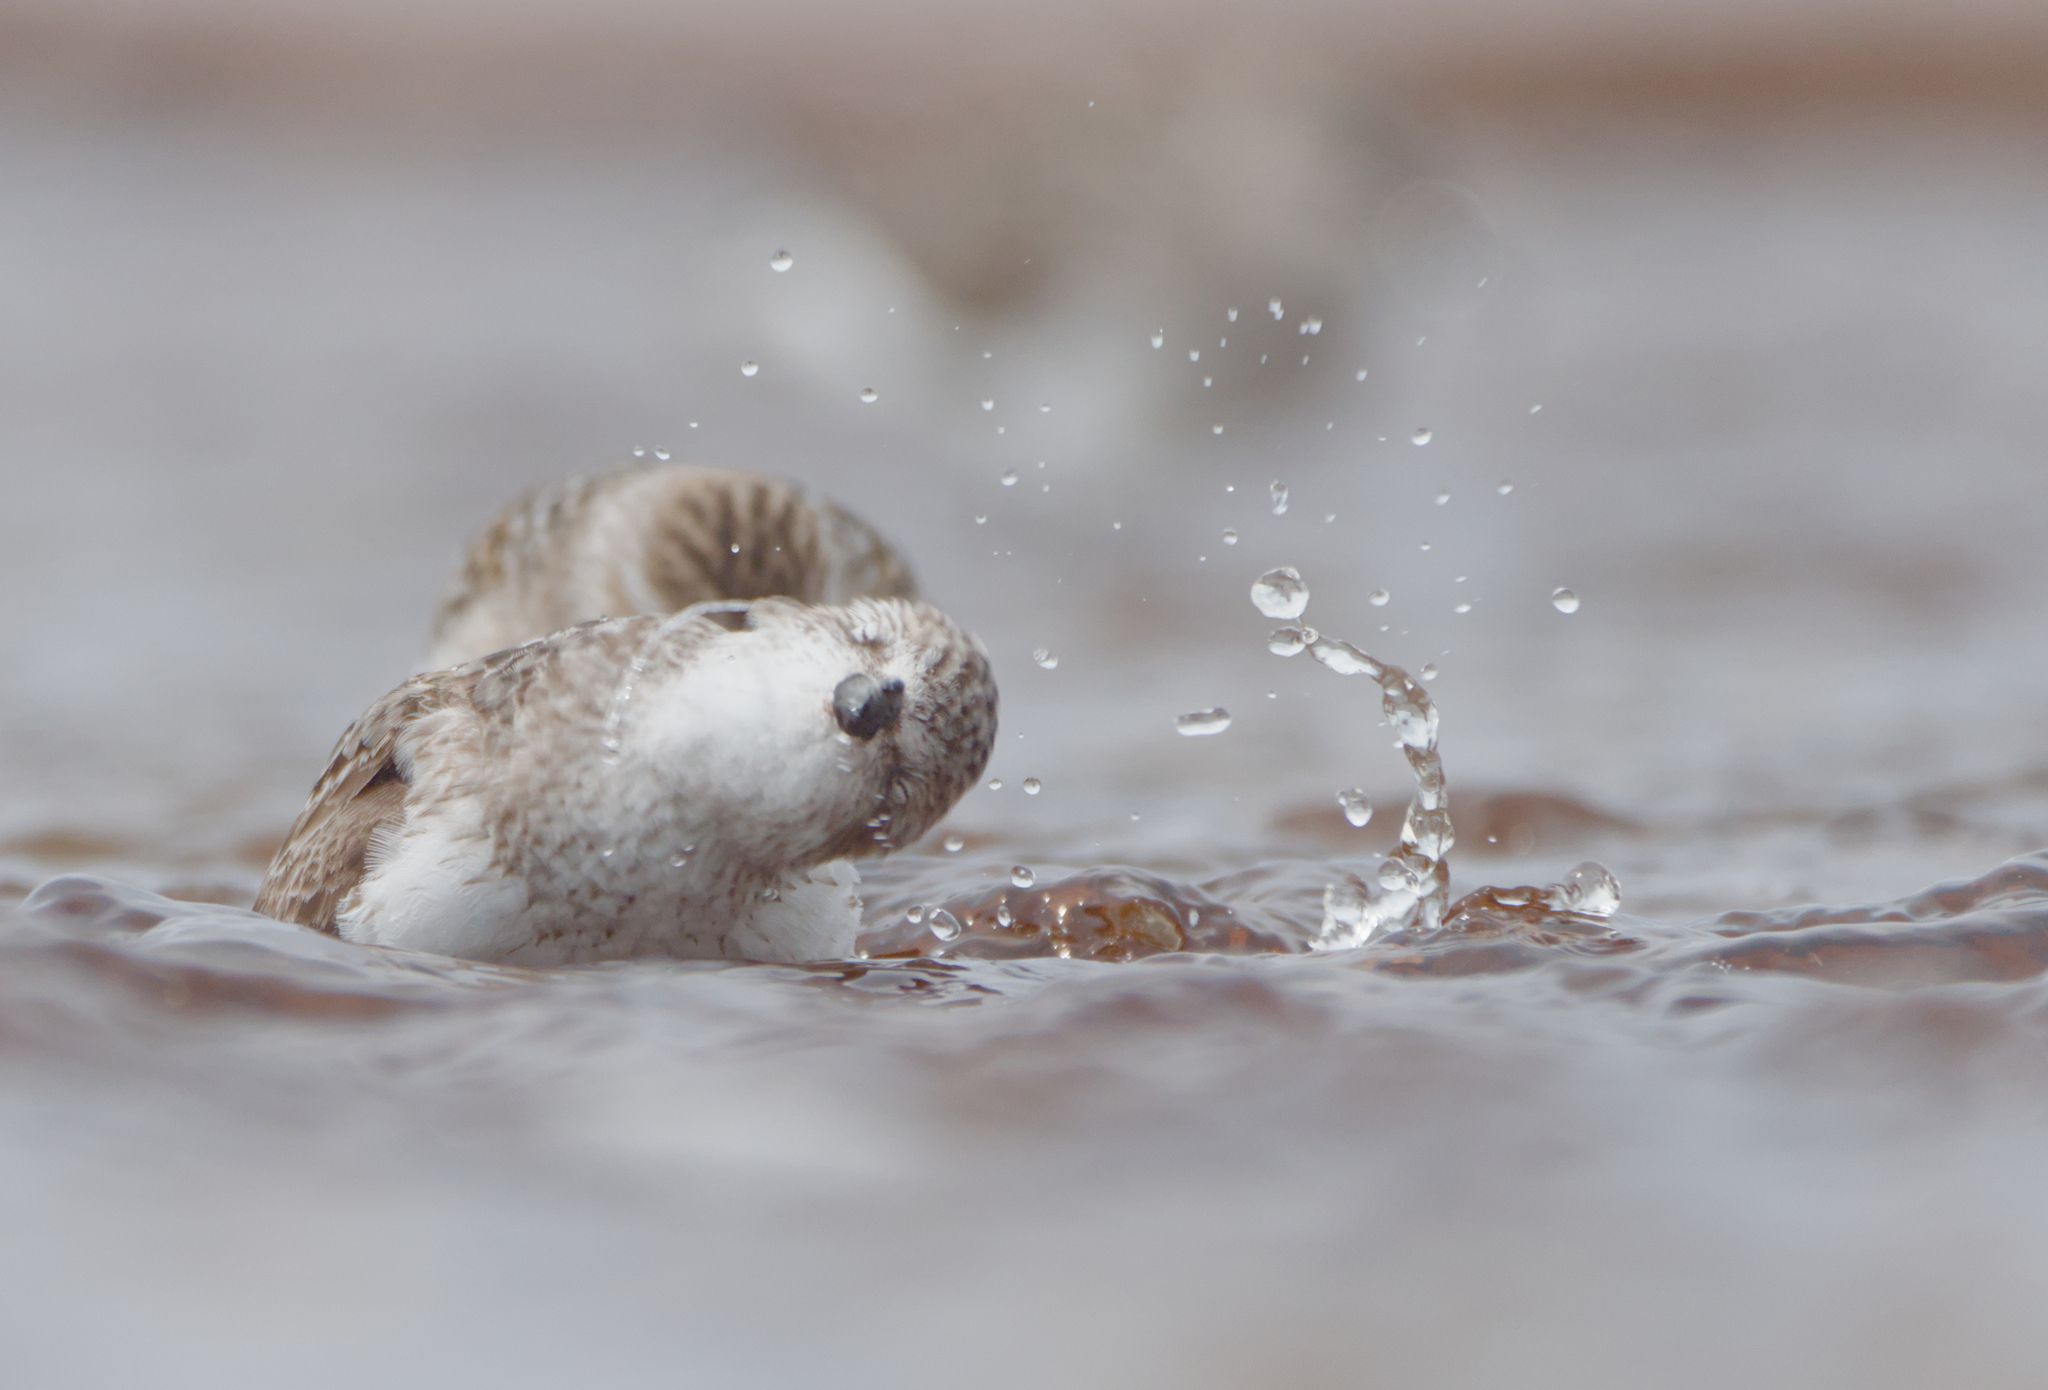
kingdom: Animalia
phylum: Chordata
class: Aves
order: Charadriiformes
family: Scolopacidae
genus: Calidris
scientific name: Calidris pusilla
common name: Semipalmated sandpiper
